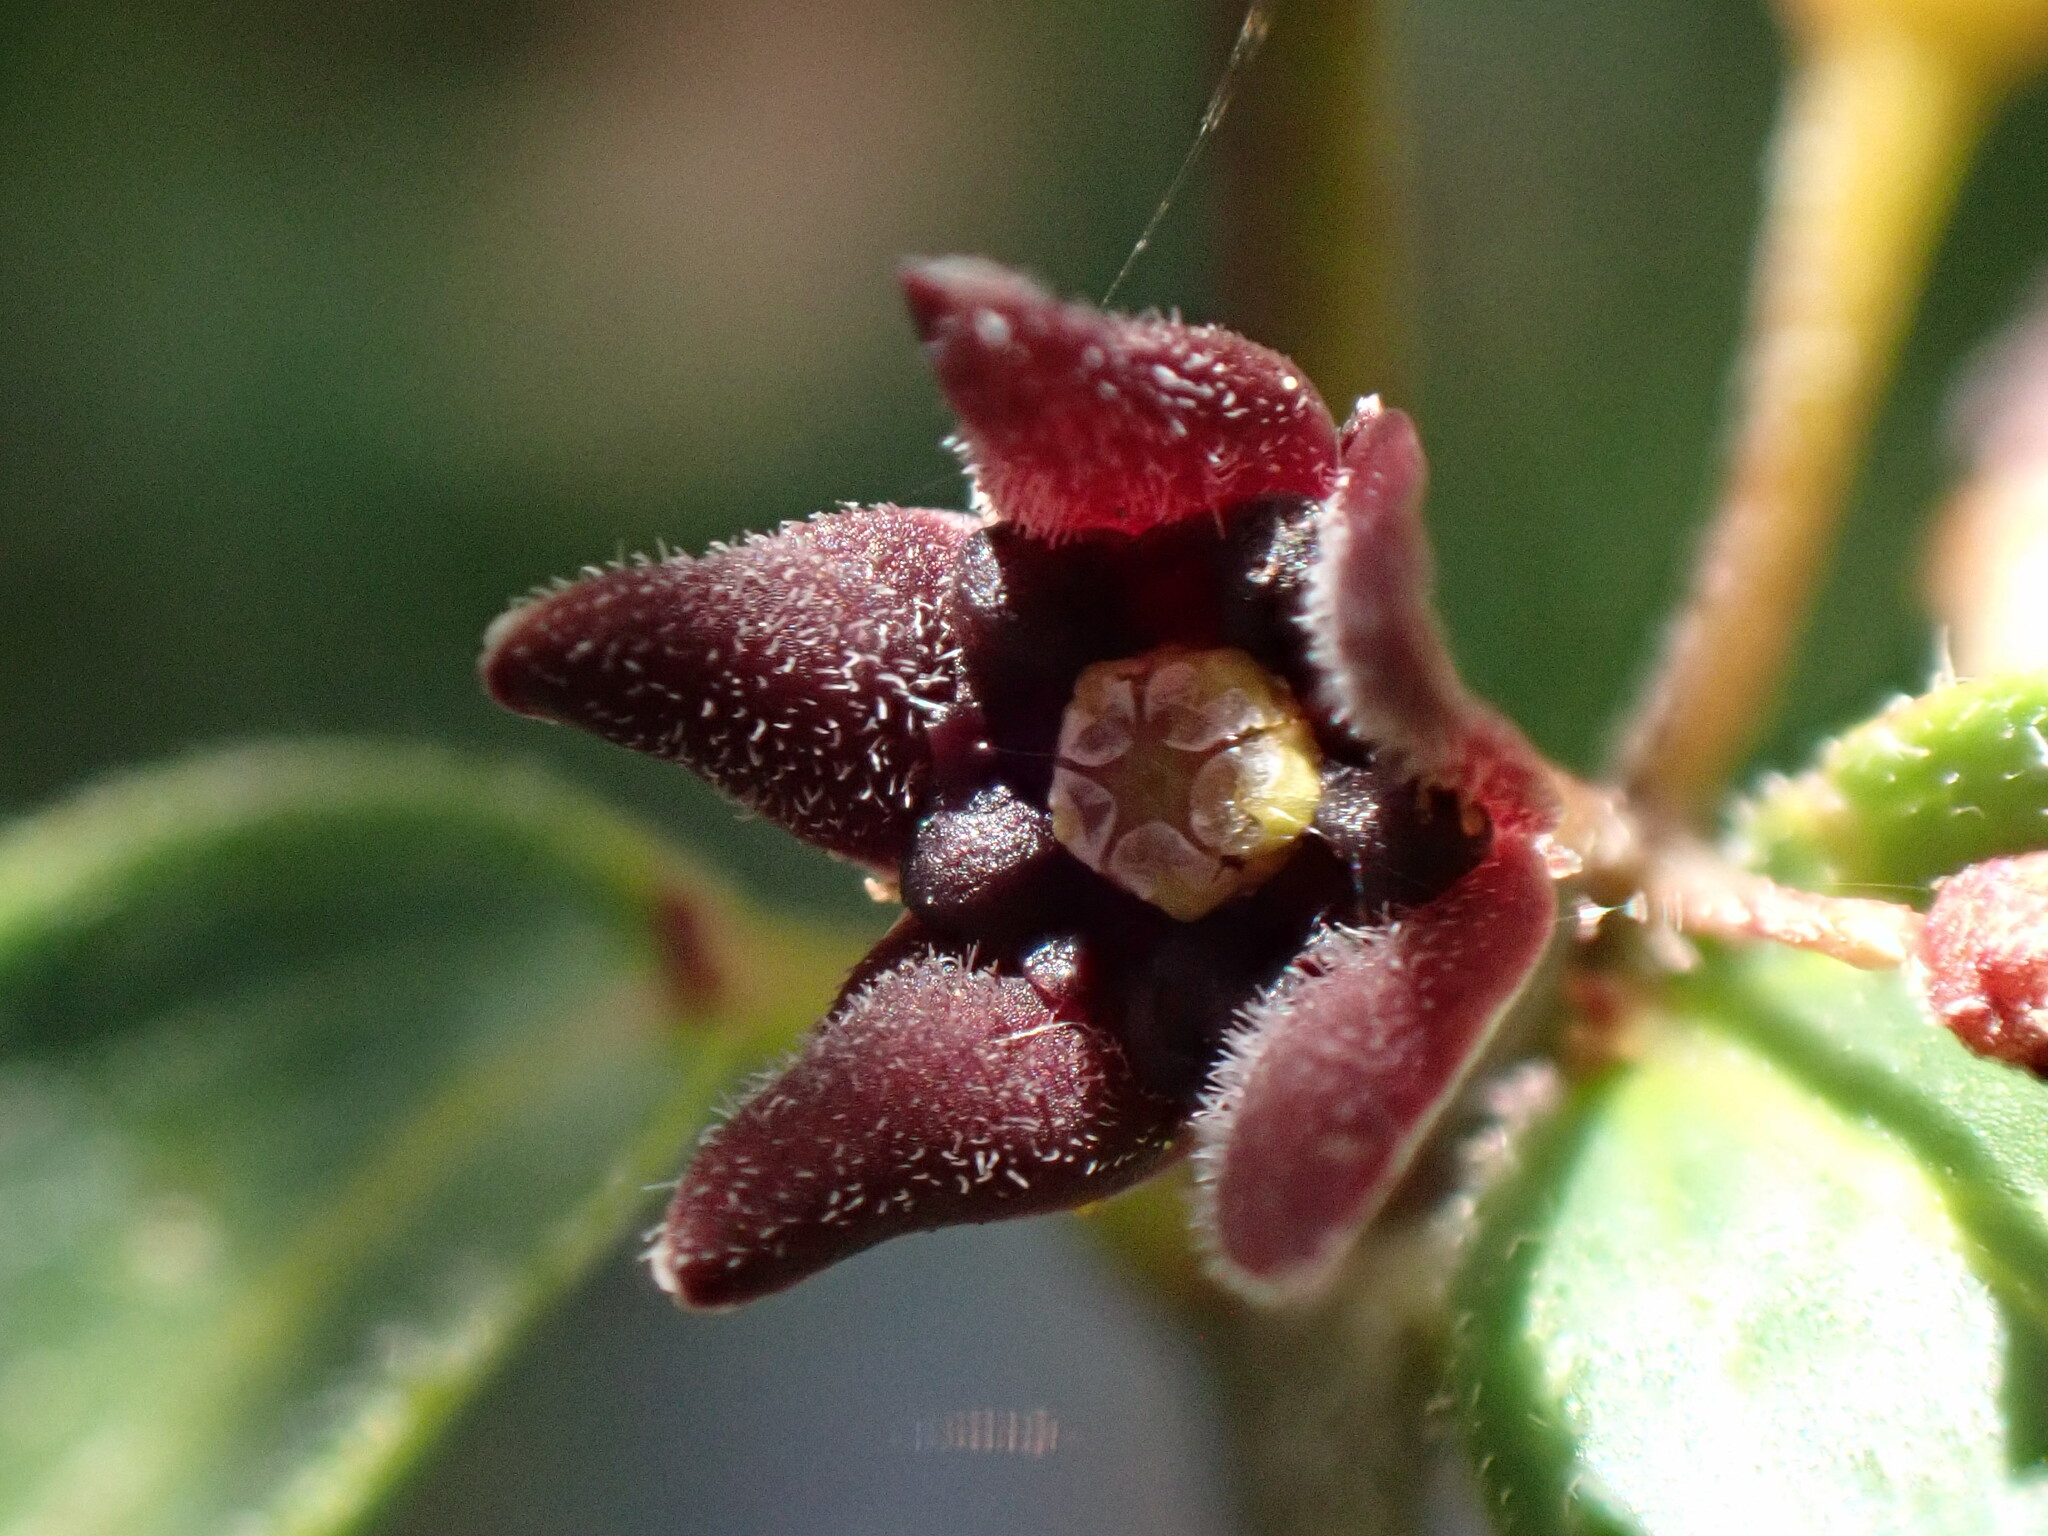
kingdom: Plantae
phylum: Tracheophyta
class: Magnoliopsida
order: Gentianales
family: Apocynaceae
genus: Vincetoxicum
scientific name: Vincetoxicum nigrum
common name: Black swallow-wort
